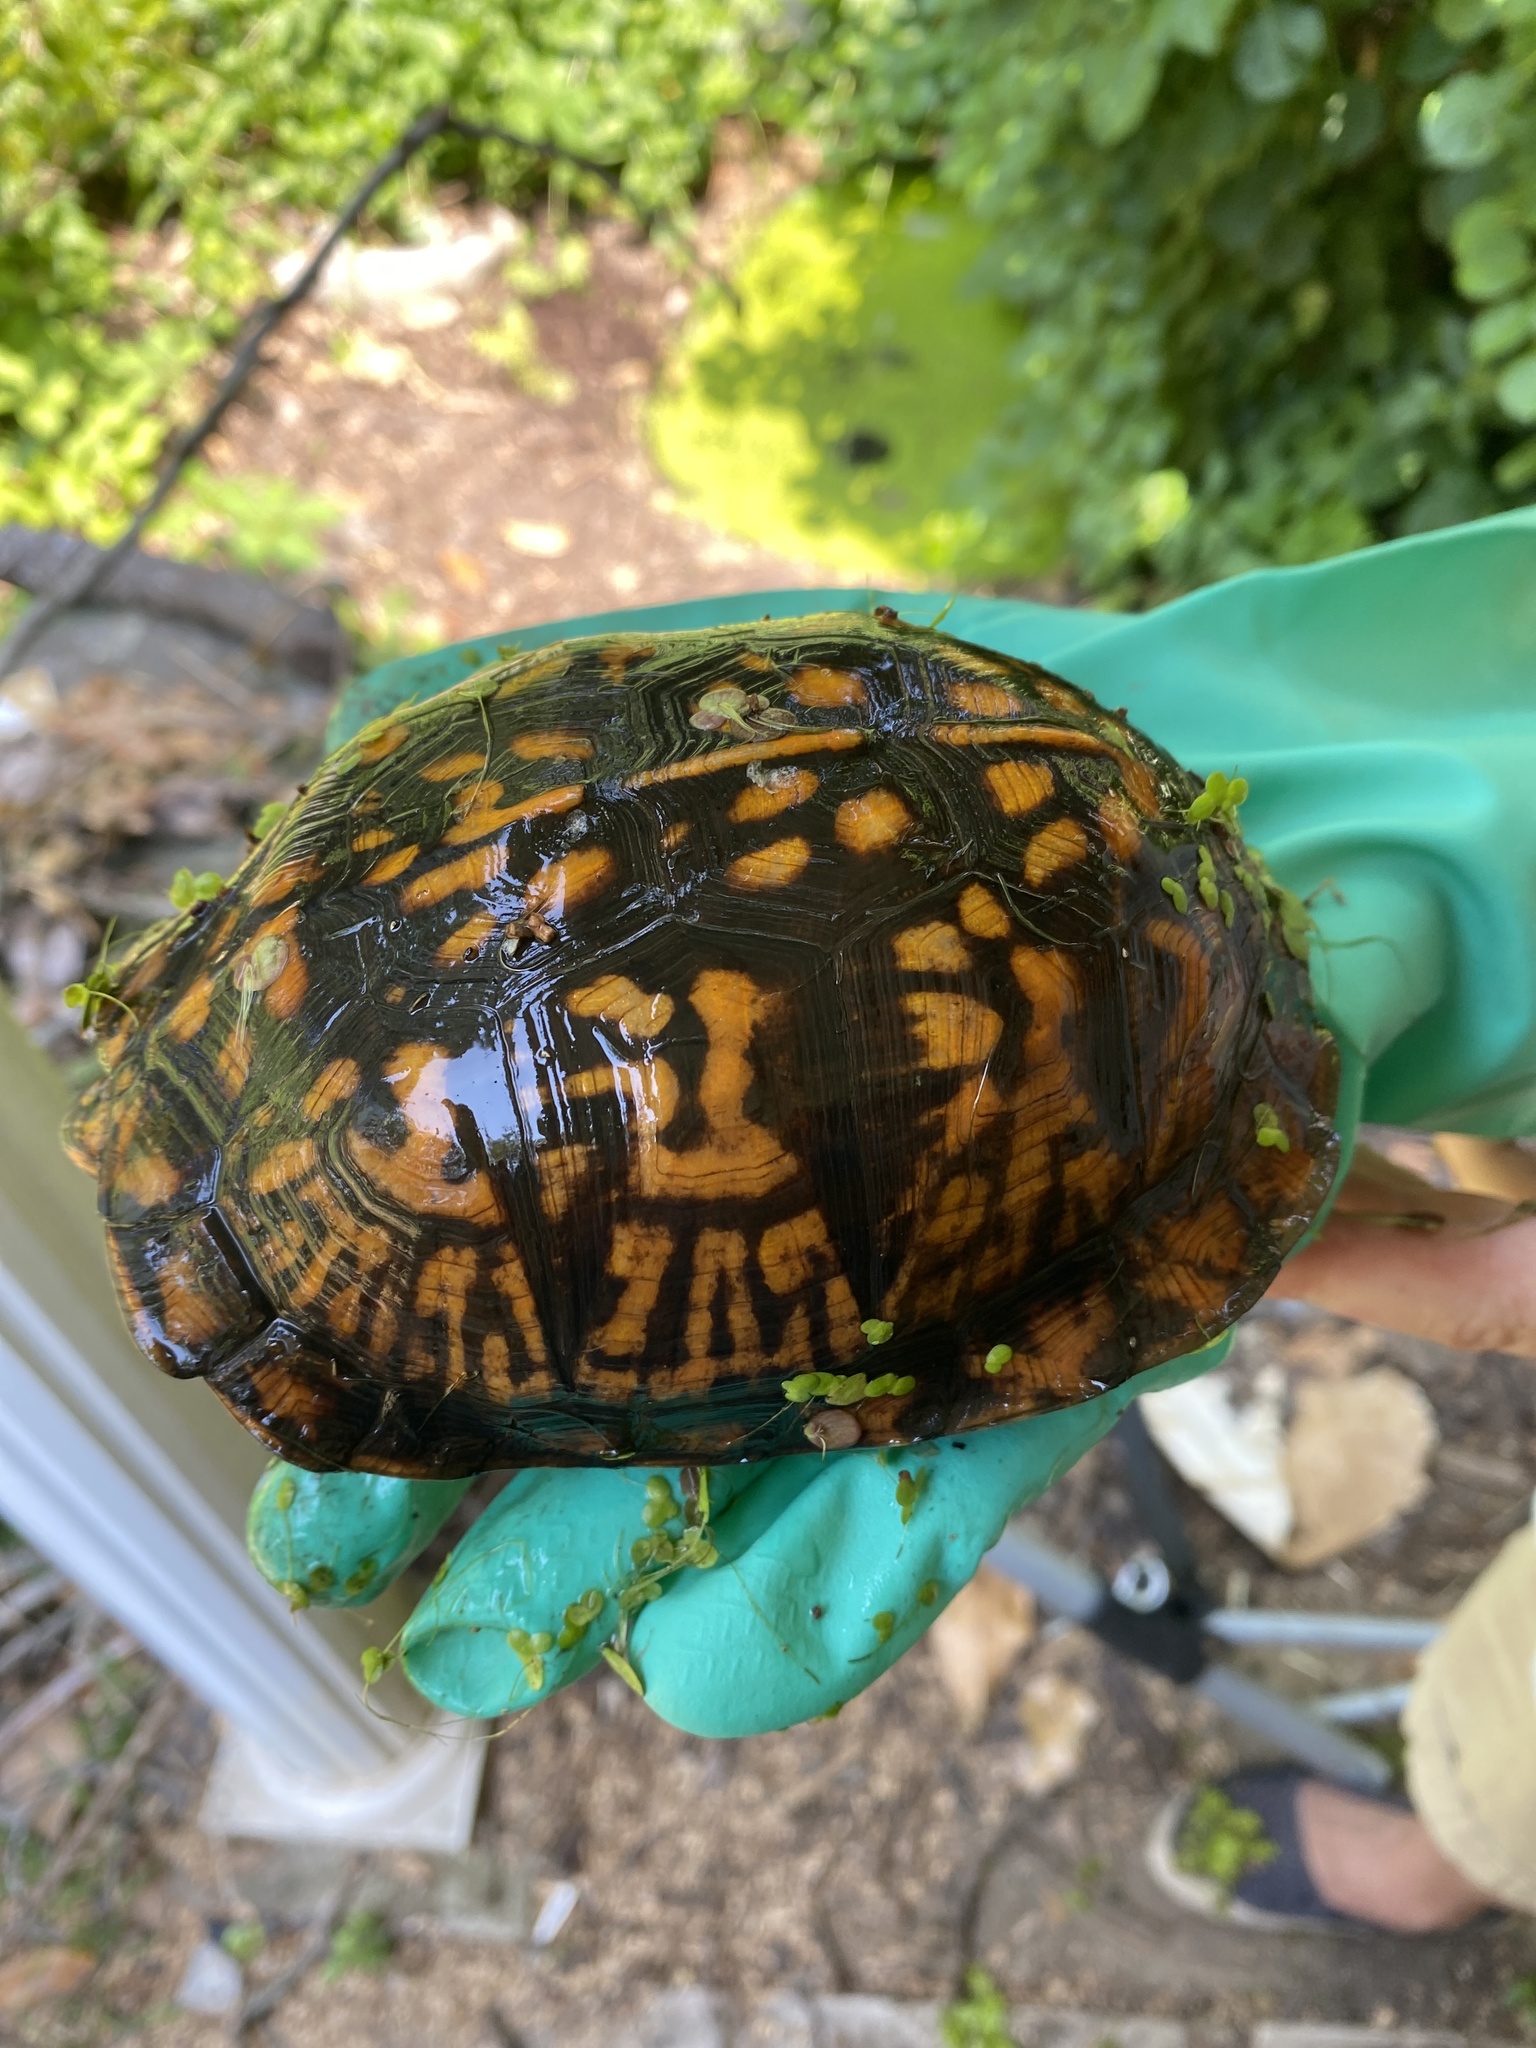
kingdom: Animalia
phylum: Chordata
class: Testudines
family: Emydidae
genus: Terrapene
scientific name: Terrapene carolina
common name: Common box turtle
